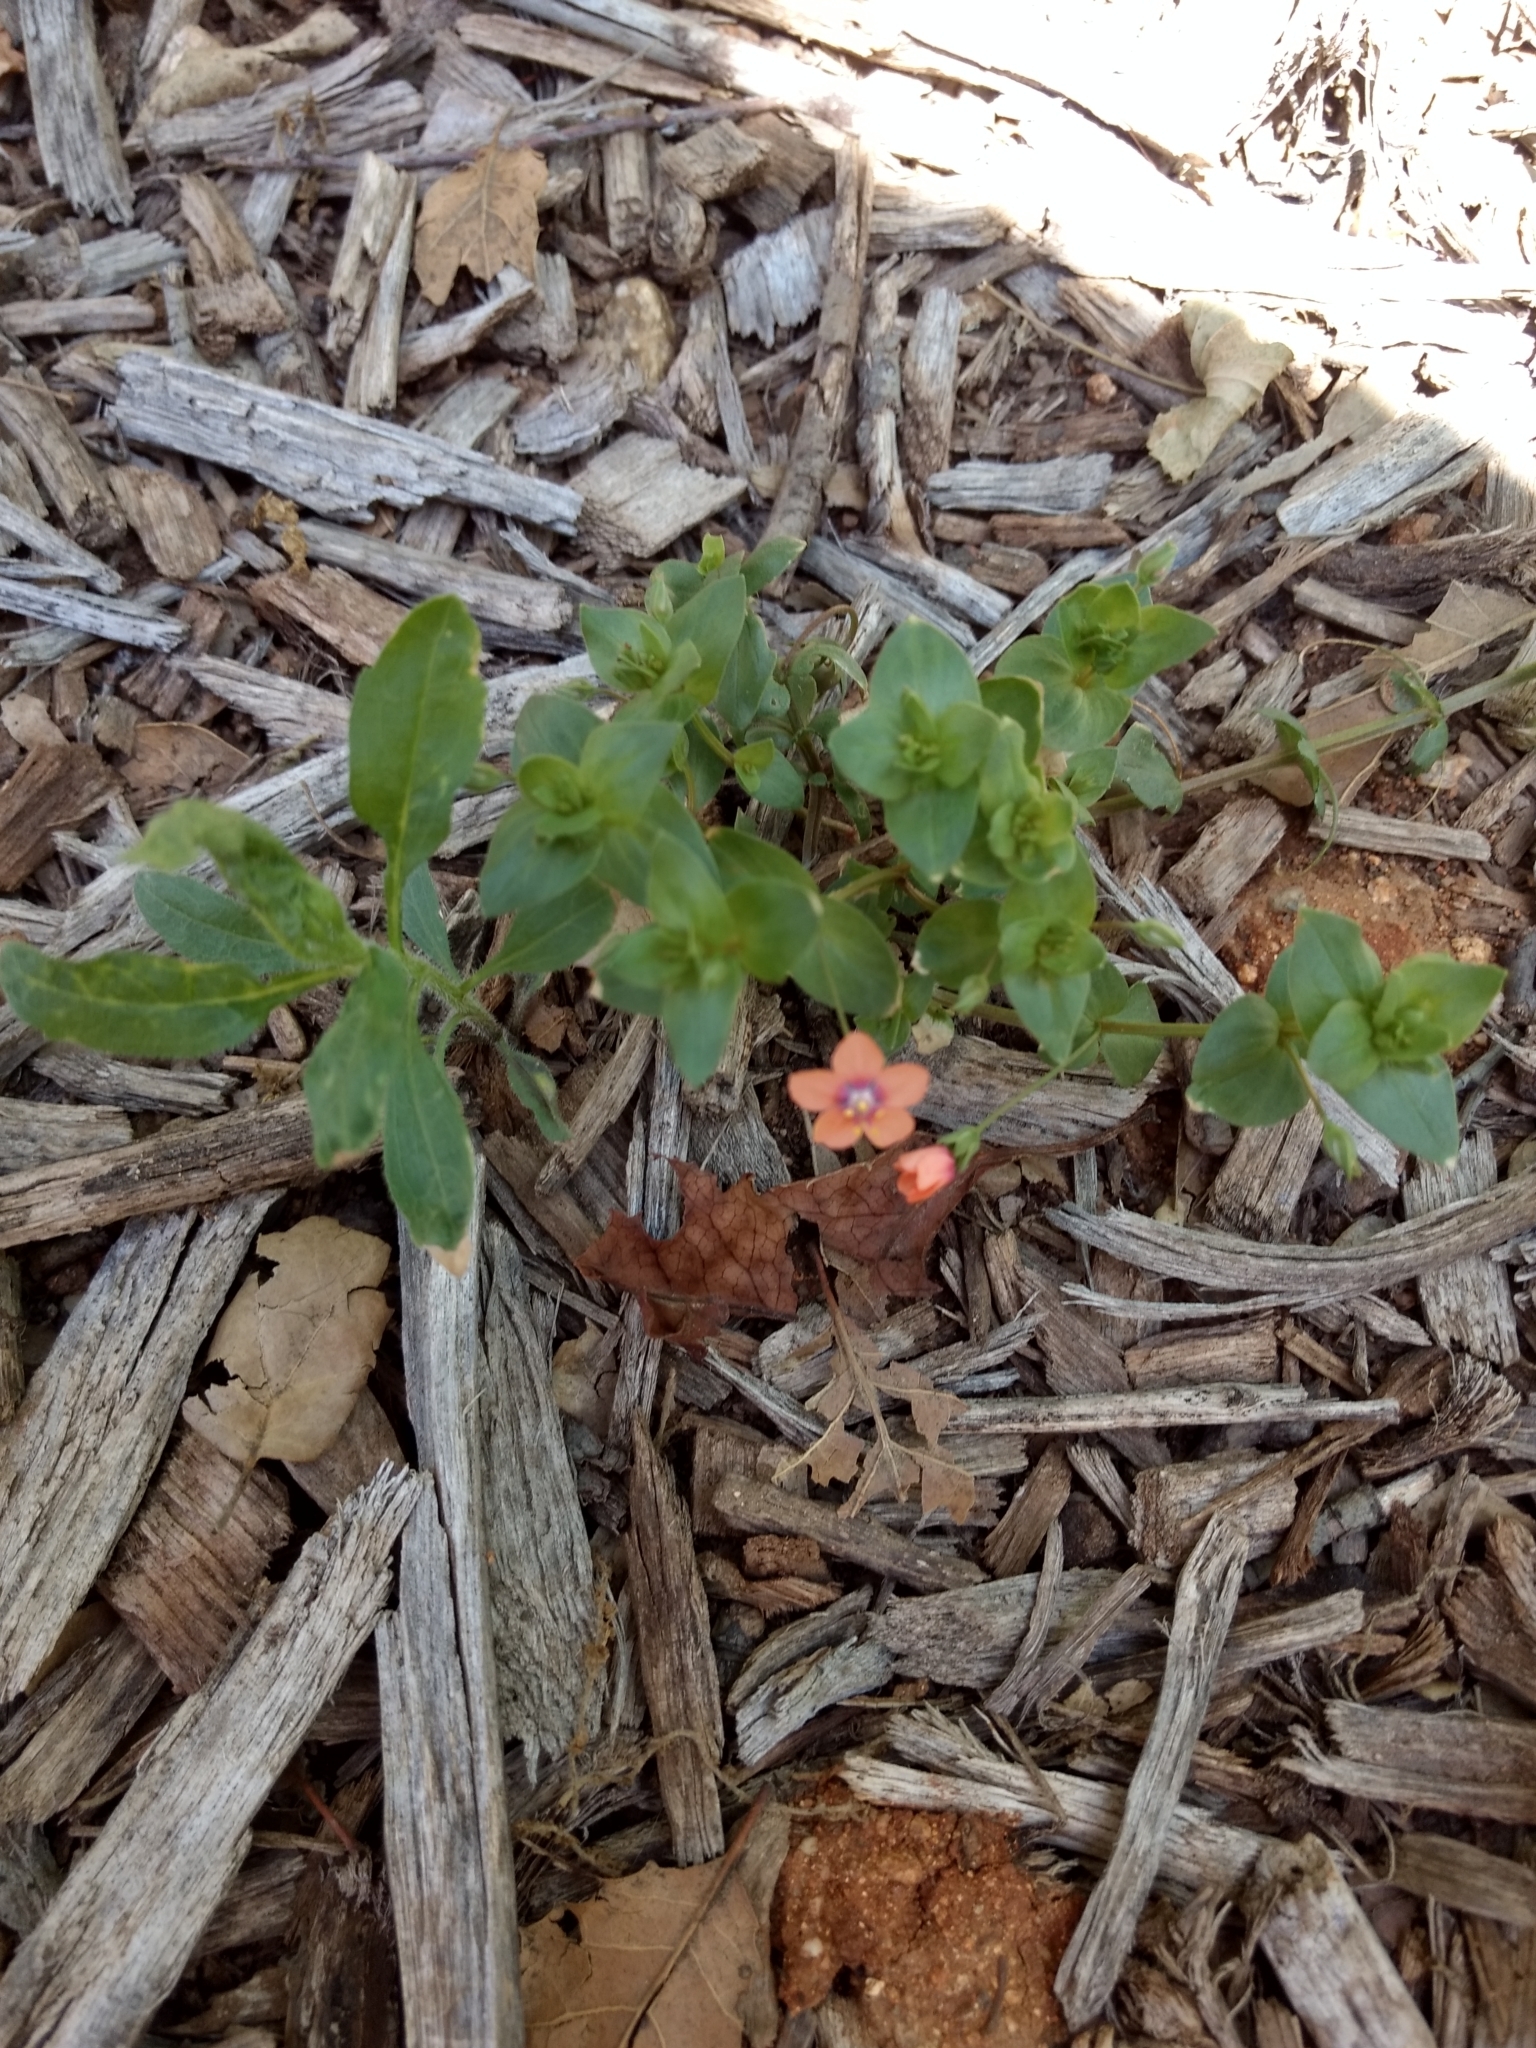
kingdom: Plantae
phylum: Tracheophyta
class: Magnoliopsida
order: Ericales
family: Primulaceae
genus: Lysimachia
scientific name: Lysimachia arvensis
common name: Scarlet pimpernel
